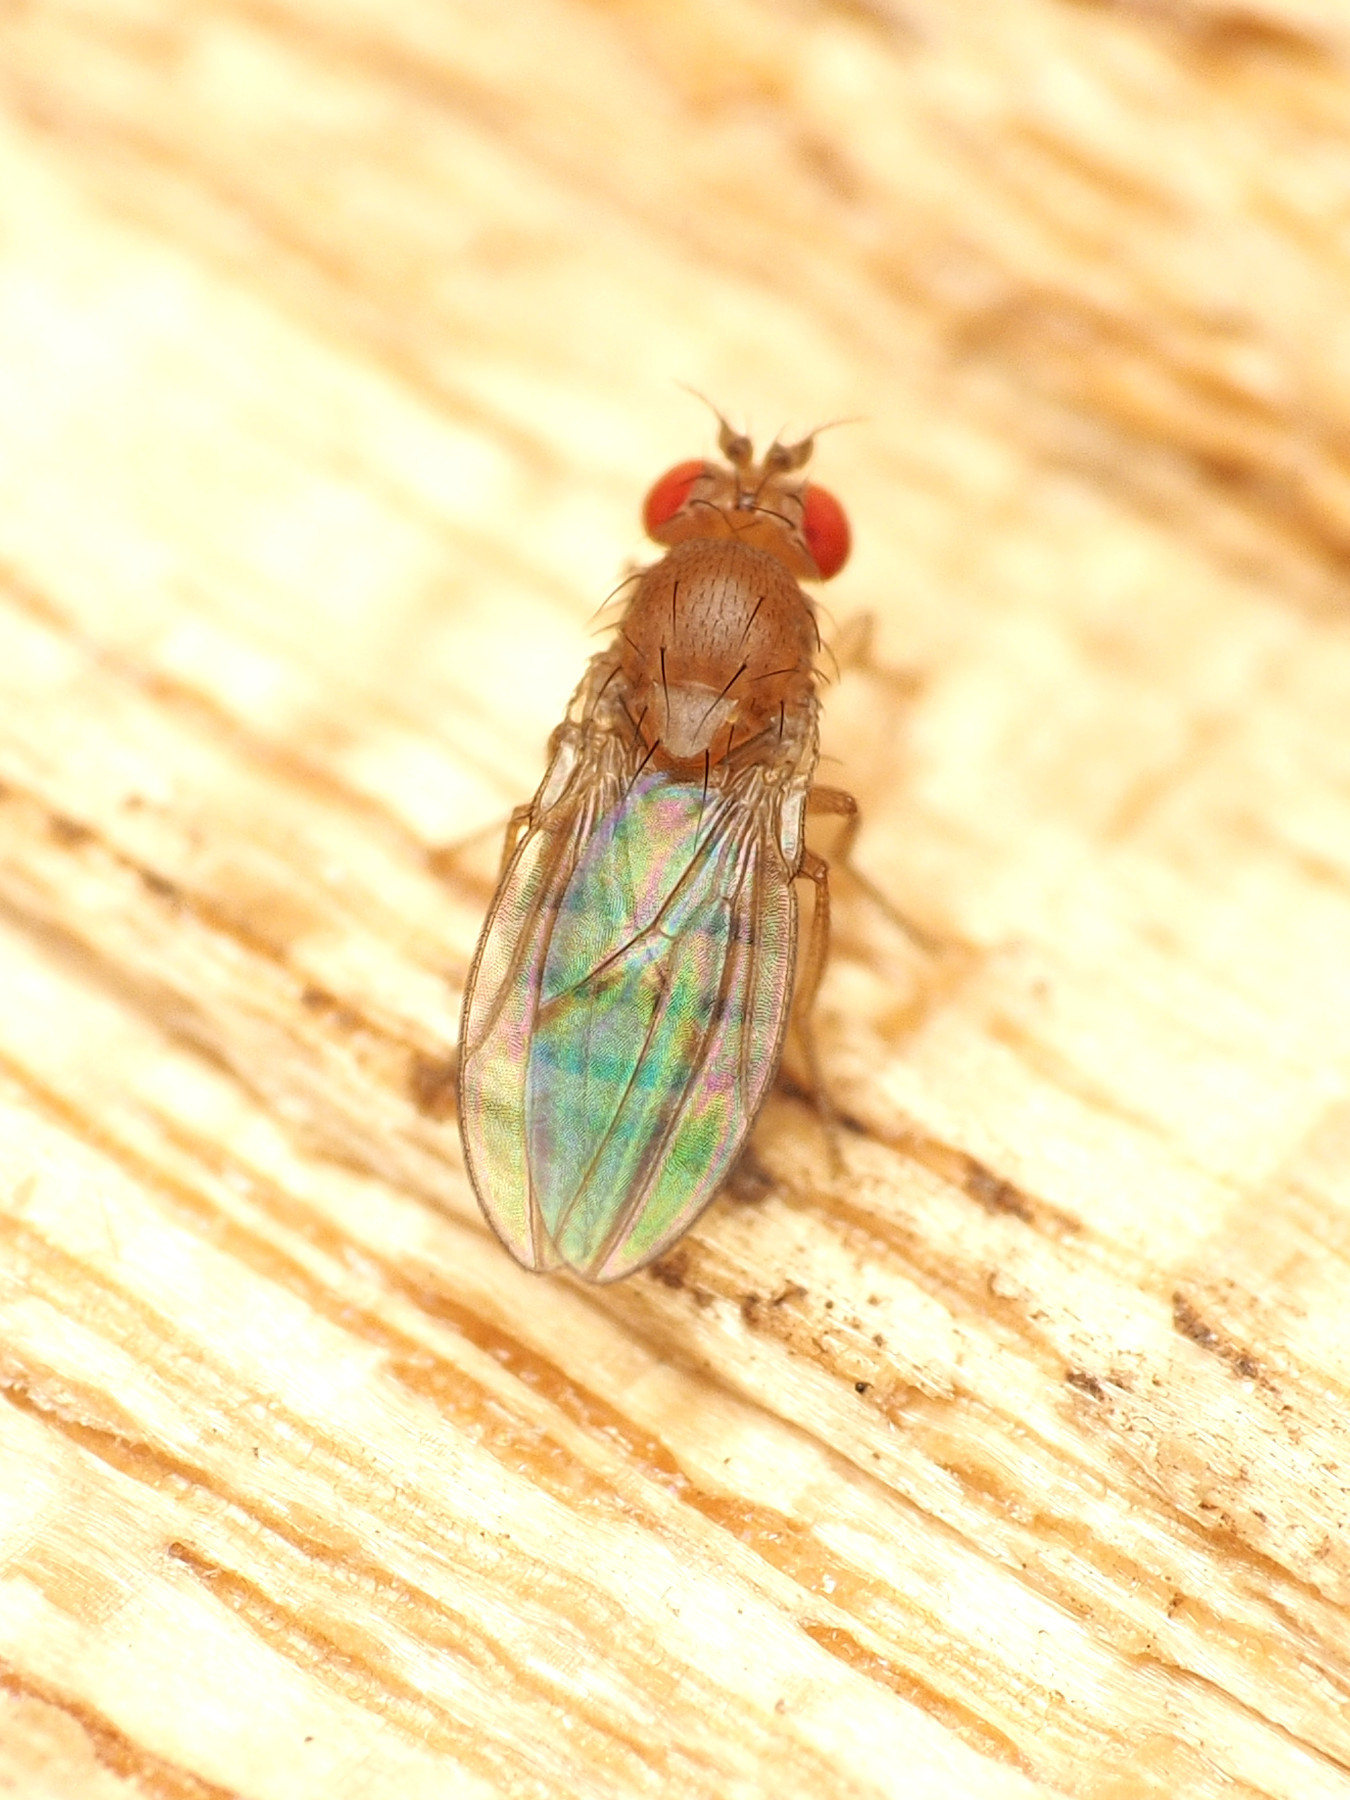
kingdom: Animalia
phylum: Arthropoda
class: Insecta
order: Diptera
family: Drosophilidae
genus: Microdrosophila
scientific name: Microdrosophila quadrata
